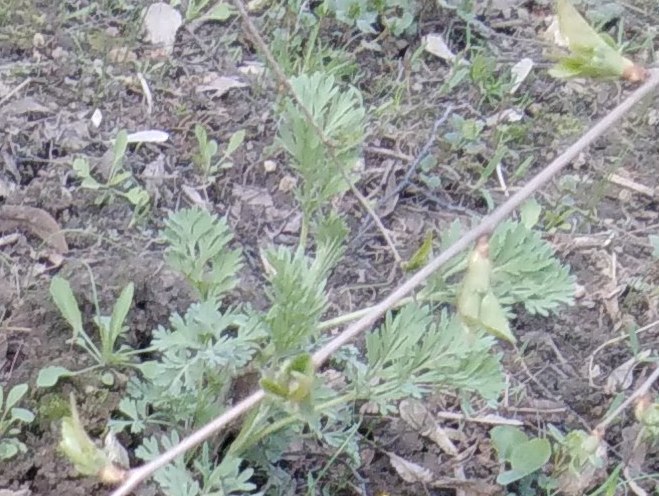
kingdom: Plantae
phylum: Tracheophyta
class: Magnoliopsida
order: Asterales
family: Asteraceae
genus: Artemisia
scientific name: Artemisia absinthium
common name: Wormwood
